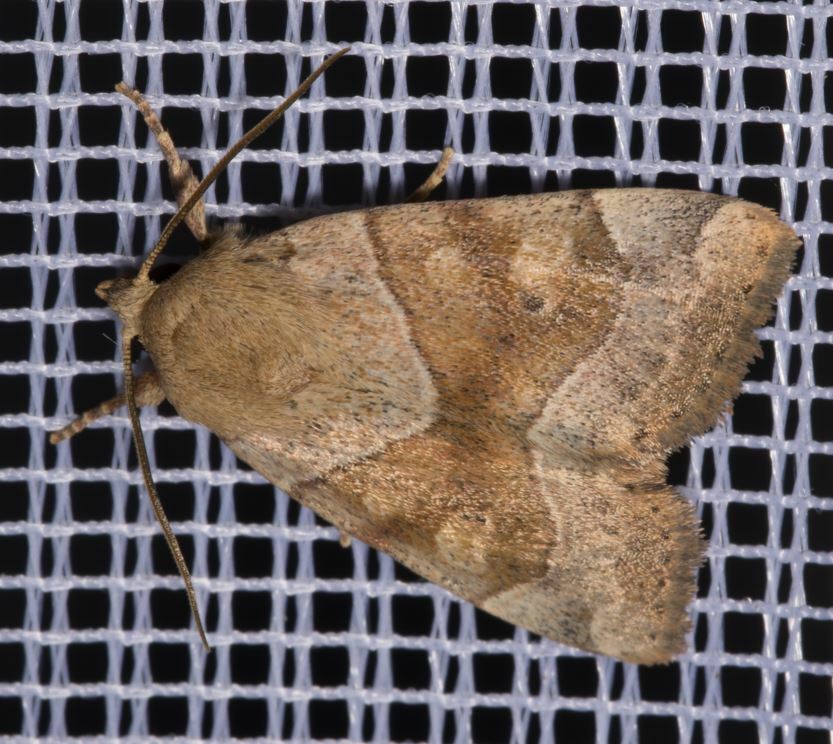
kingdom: Animalia
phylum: Arthropoda
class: Insecta
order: Lepidoptera
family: Noctuidae
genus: Cosmia
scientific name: Cosmia trapezina
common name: Dun-bar
